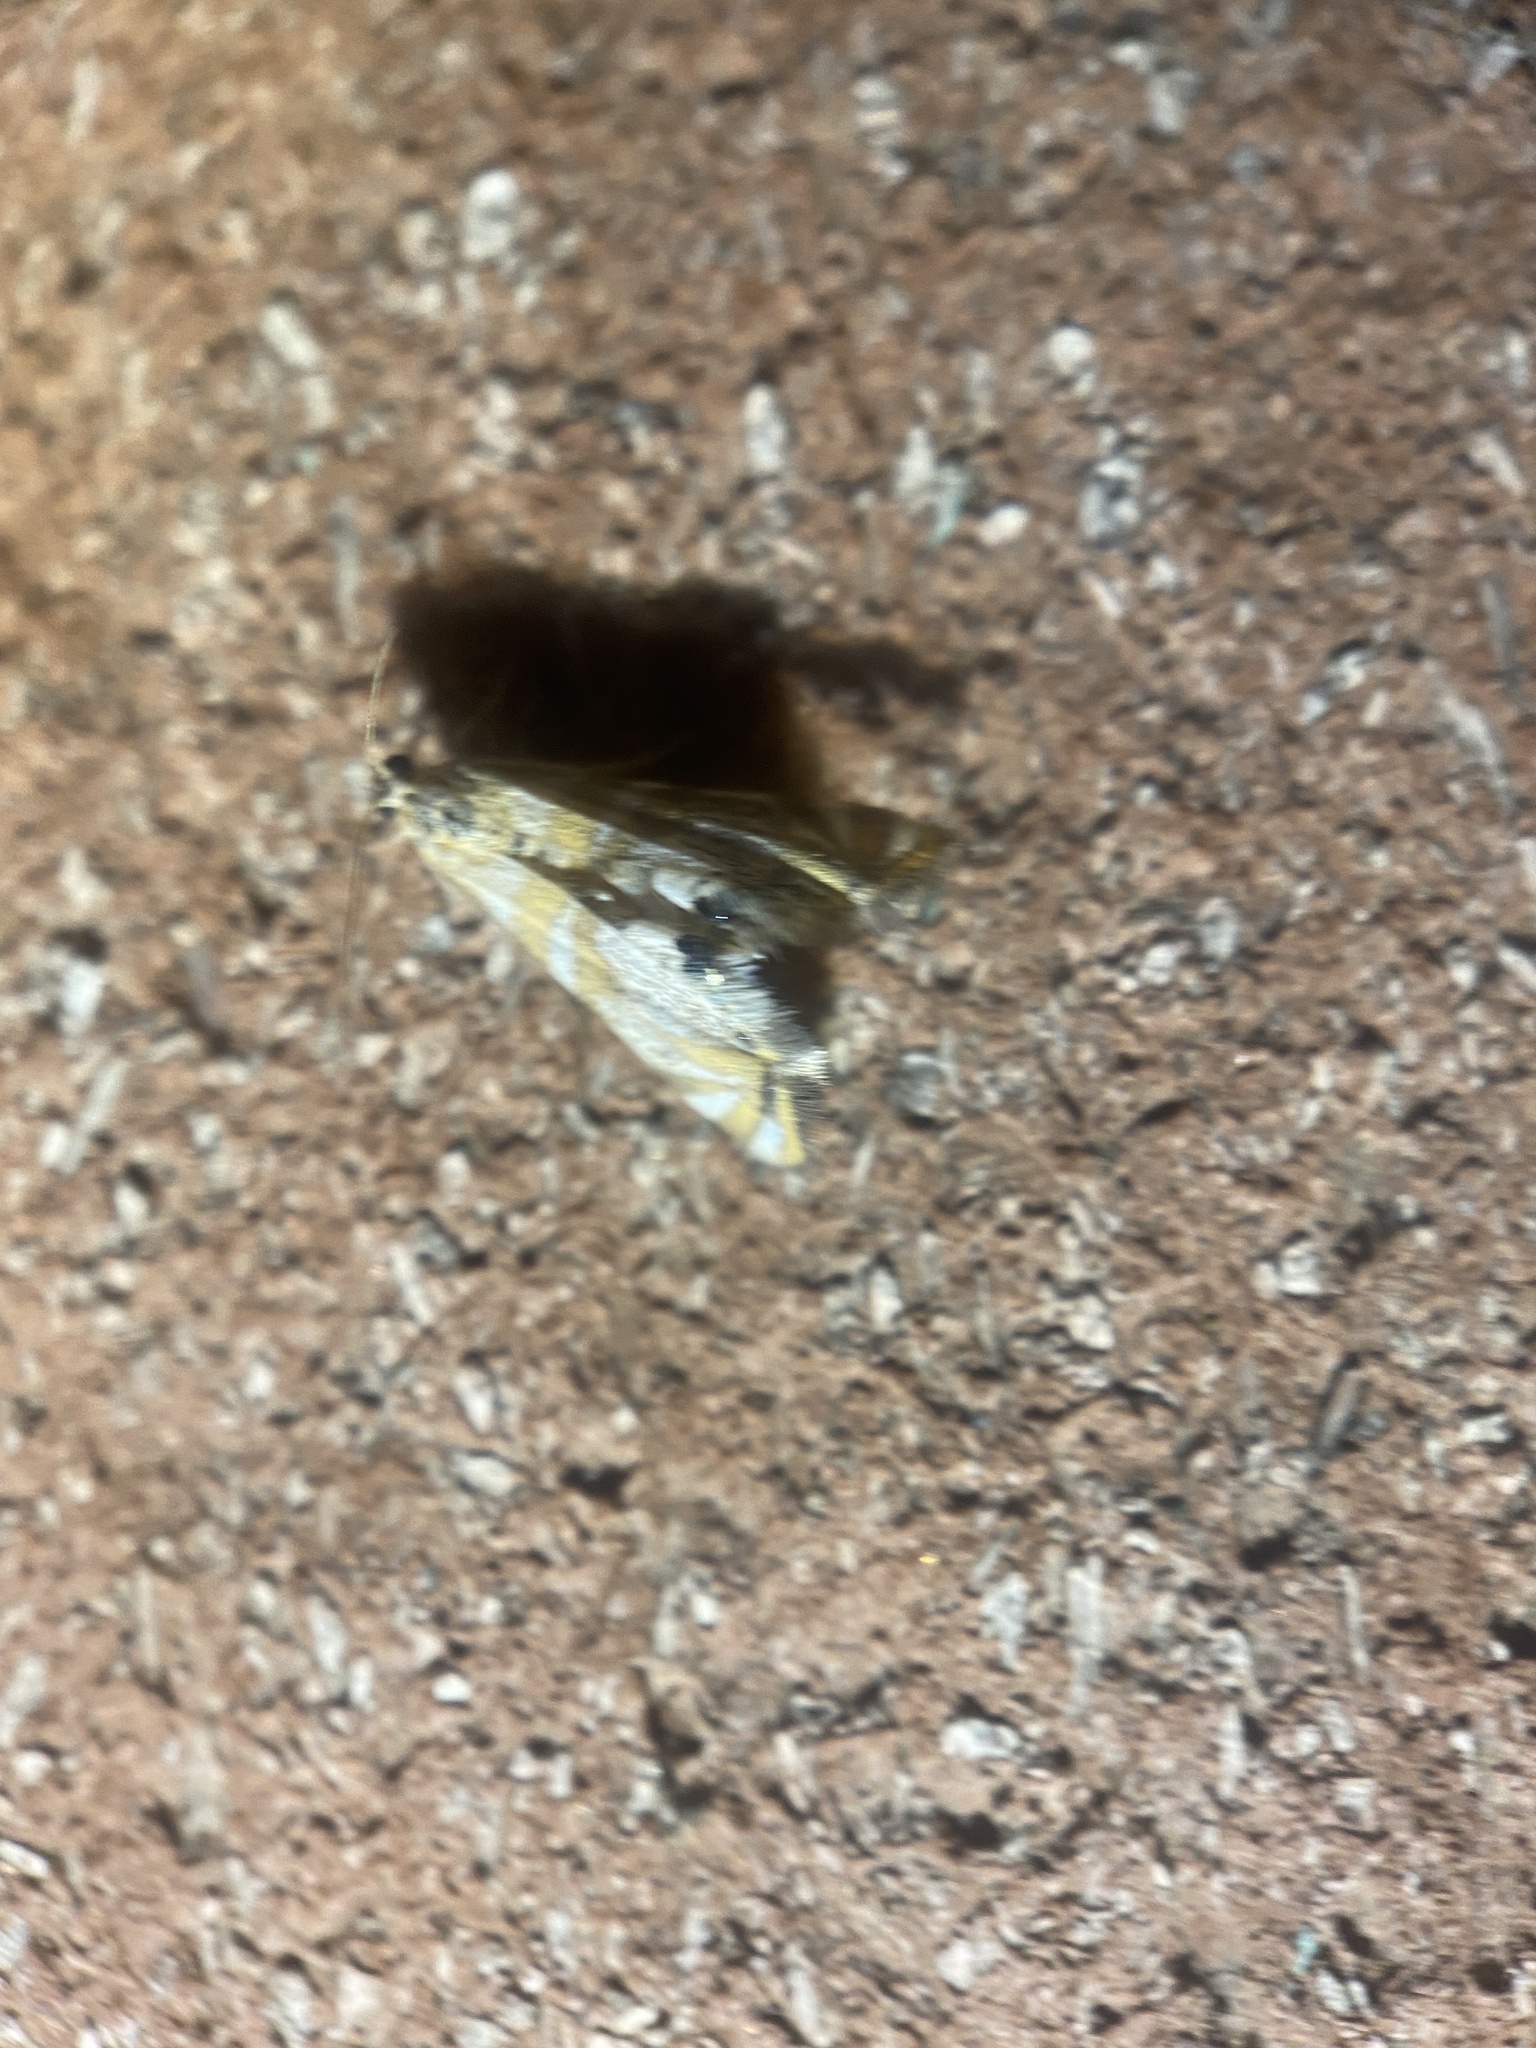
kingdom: Animalia
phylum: Arthropoda
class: Insecta
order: Lepidoptera
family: Crambidae
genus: Petrophila
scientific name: Petrophila kearfottalis
